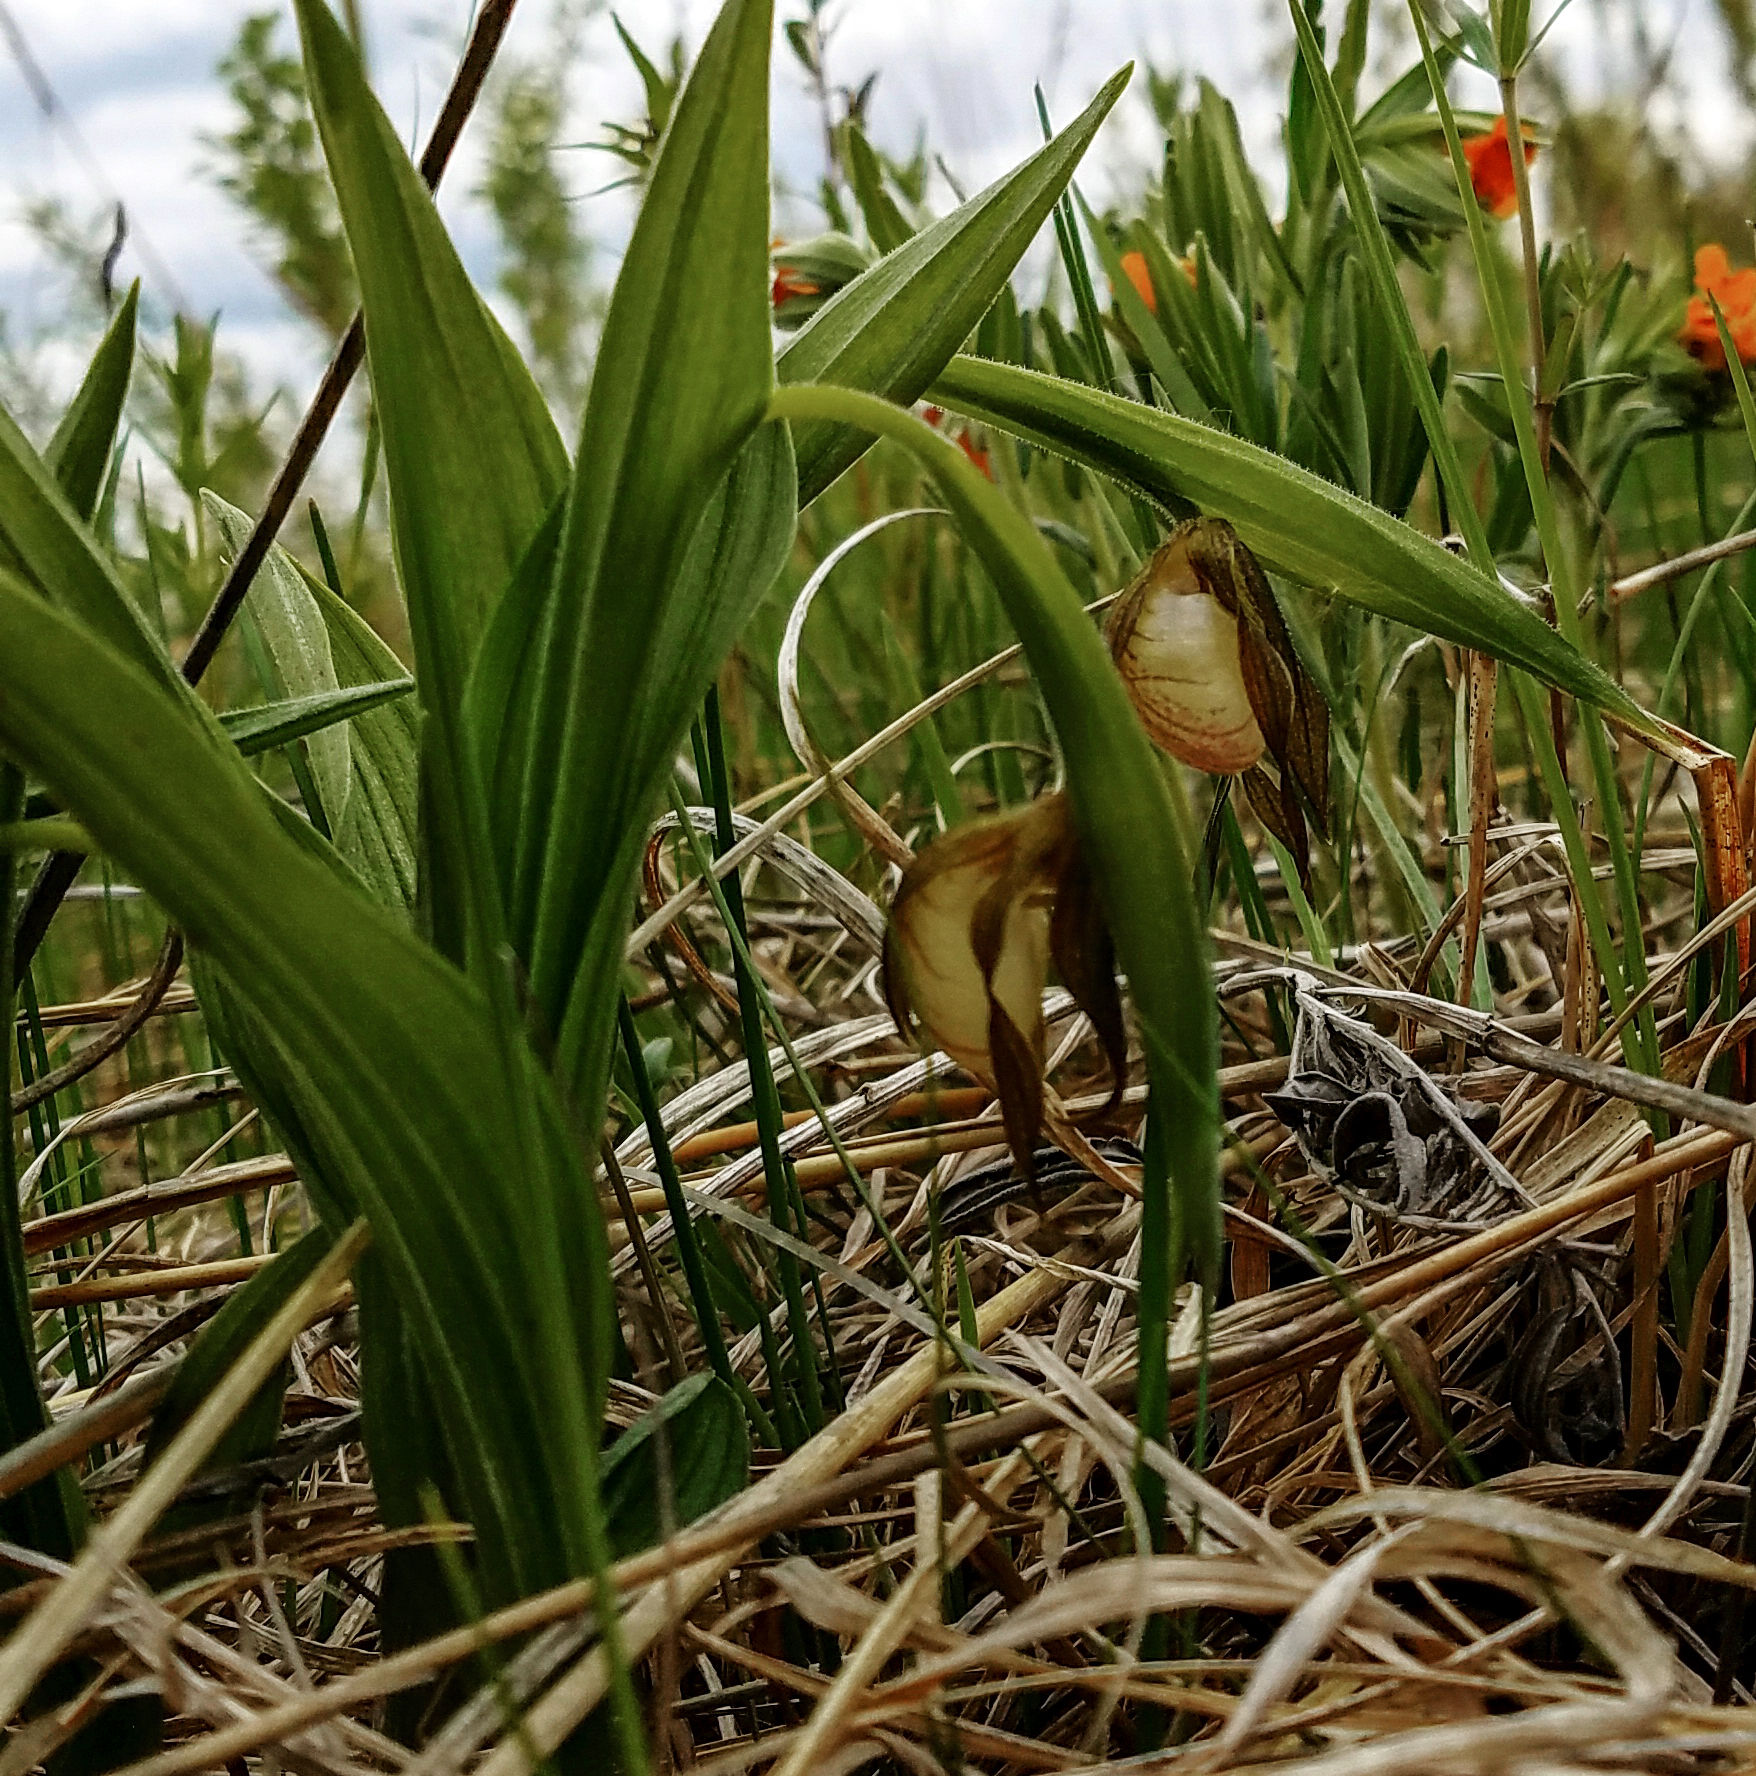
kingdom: Plantae
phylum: Tracheophyta
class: Liliopsida
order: Asparagales
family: Orchidaceae
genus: Cypripedium
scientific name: Cypripedium candidum
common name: White lady's-slipper
